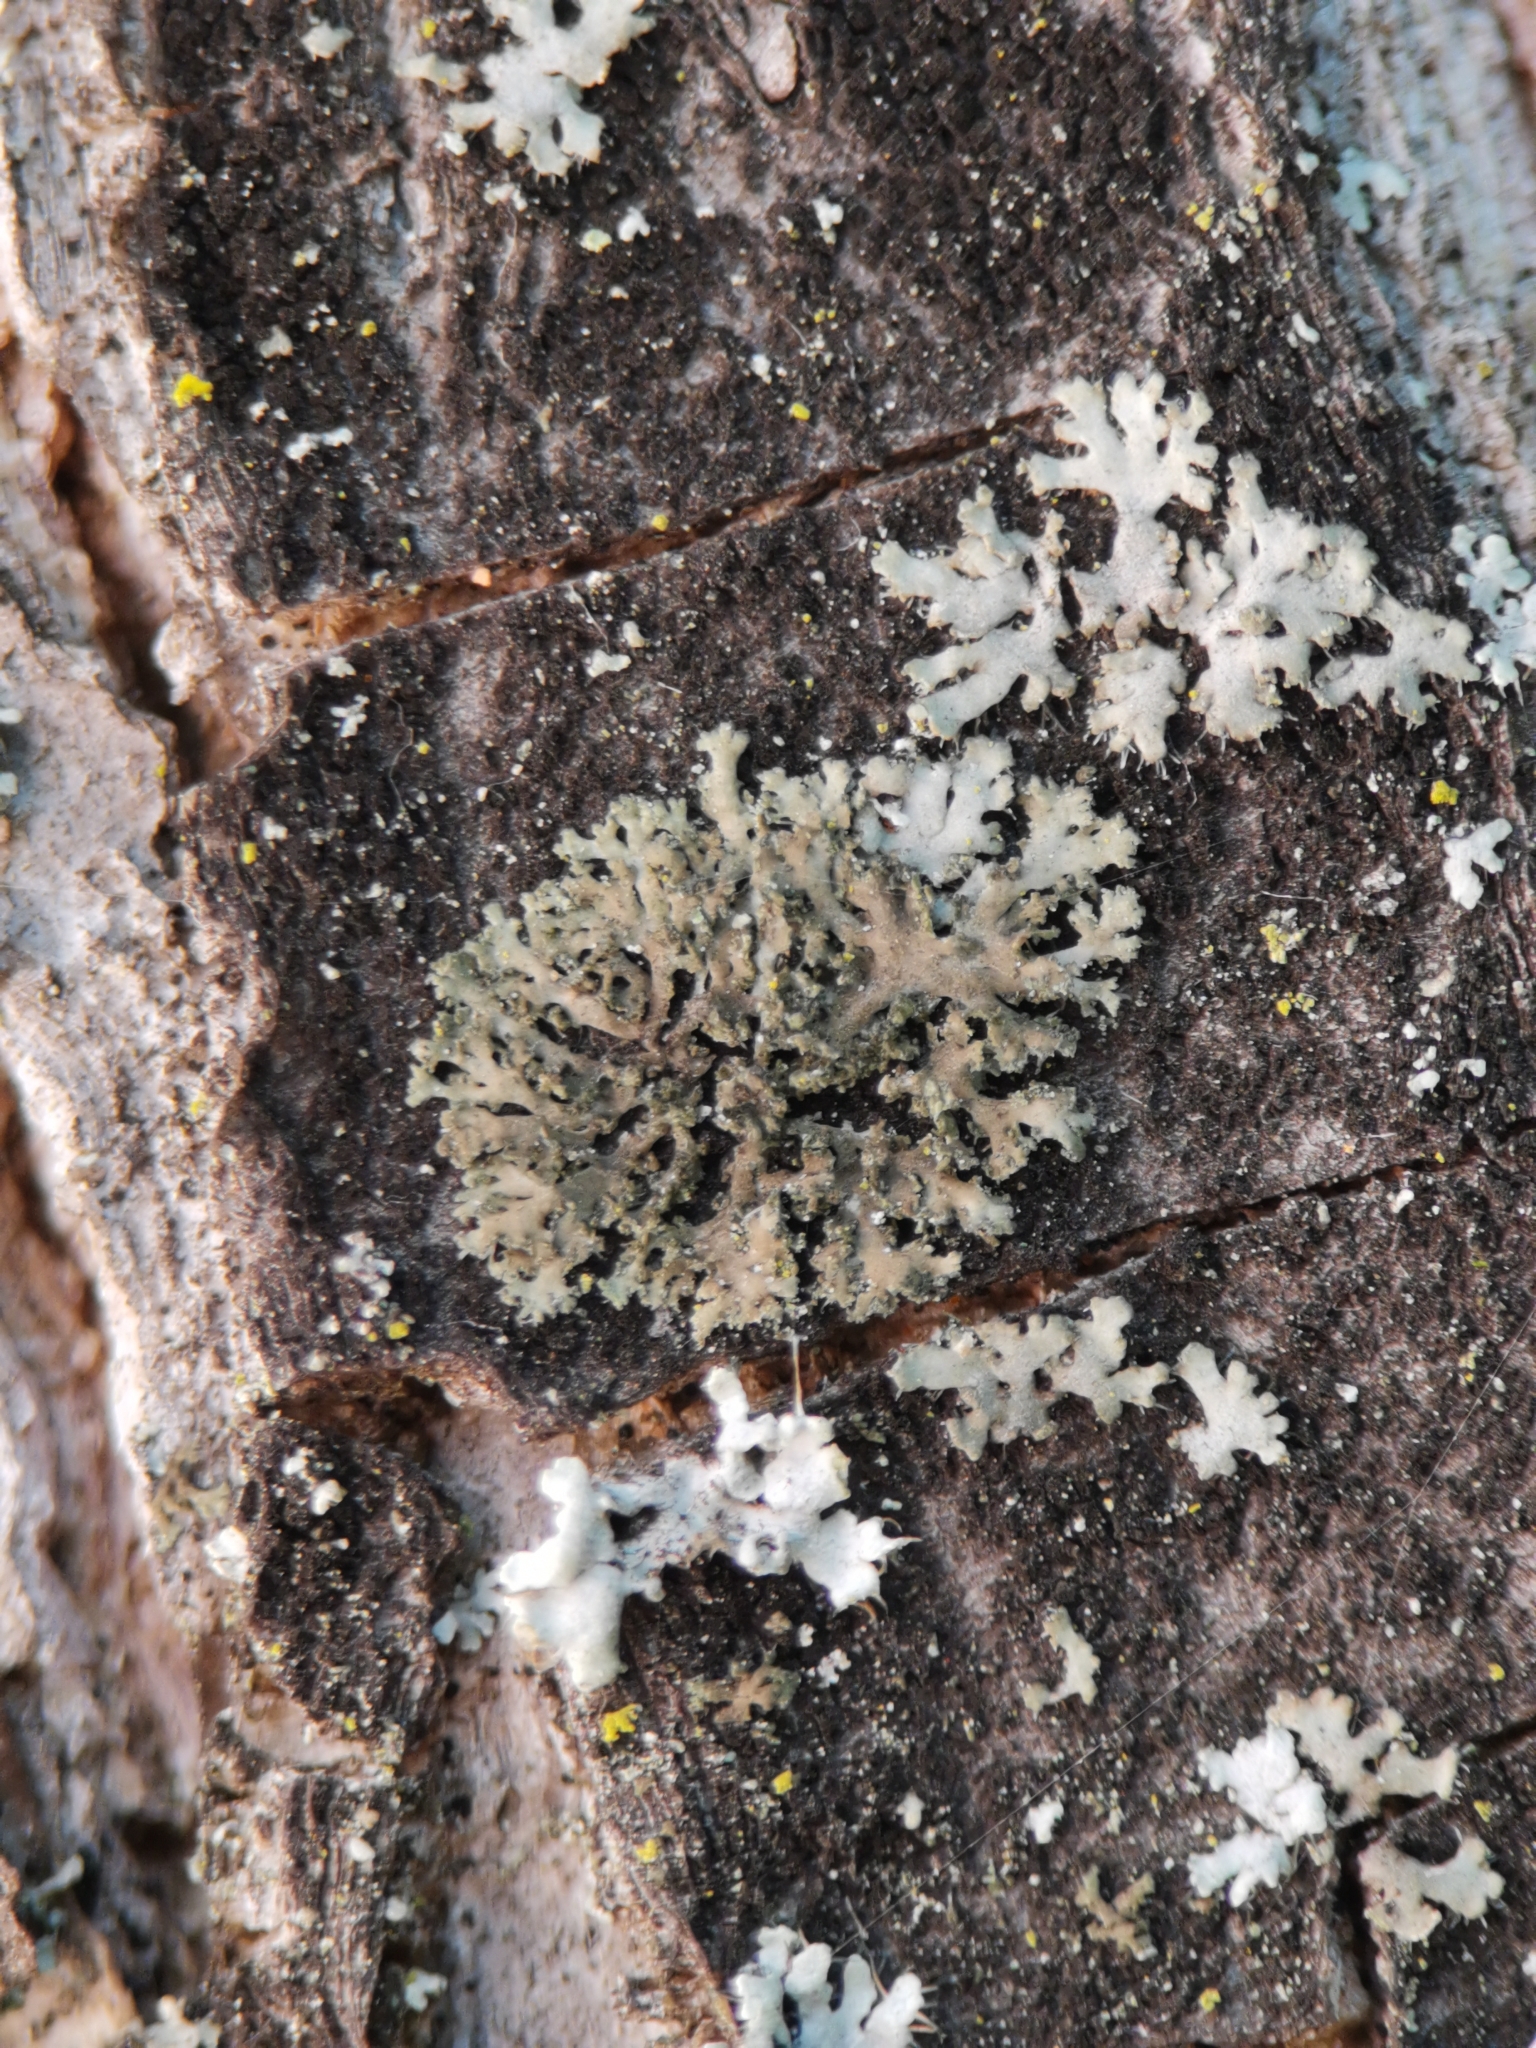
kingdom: Fungi
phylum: Ascomycota
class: Lecanoromycetes
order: Caliciales
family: Physciaceae
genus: Physciella
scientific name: Physciella nigricans
